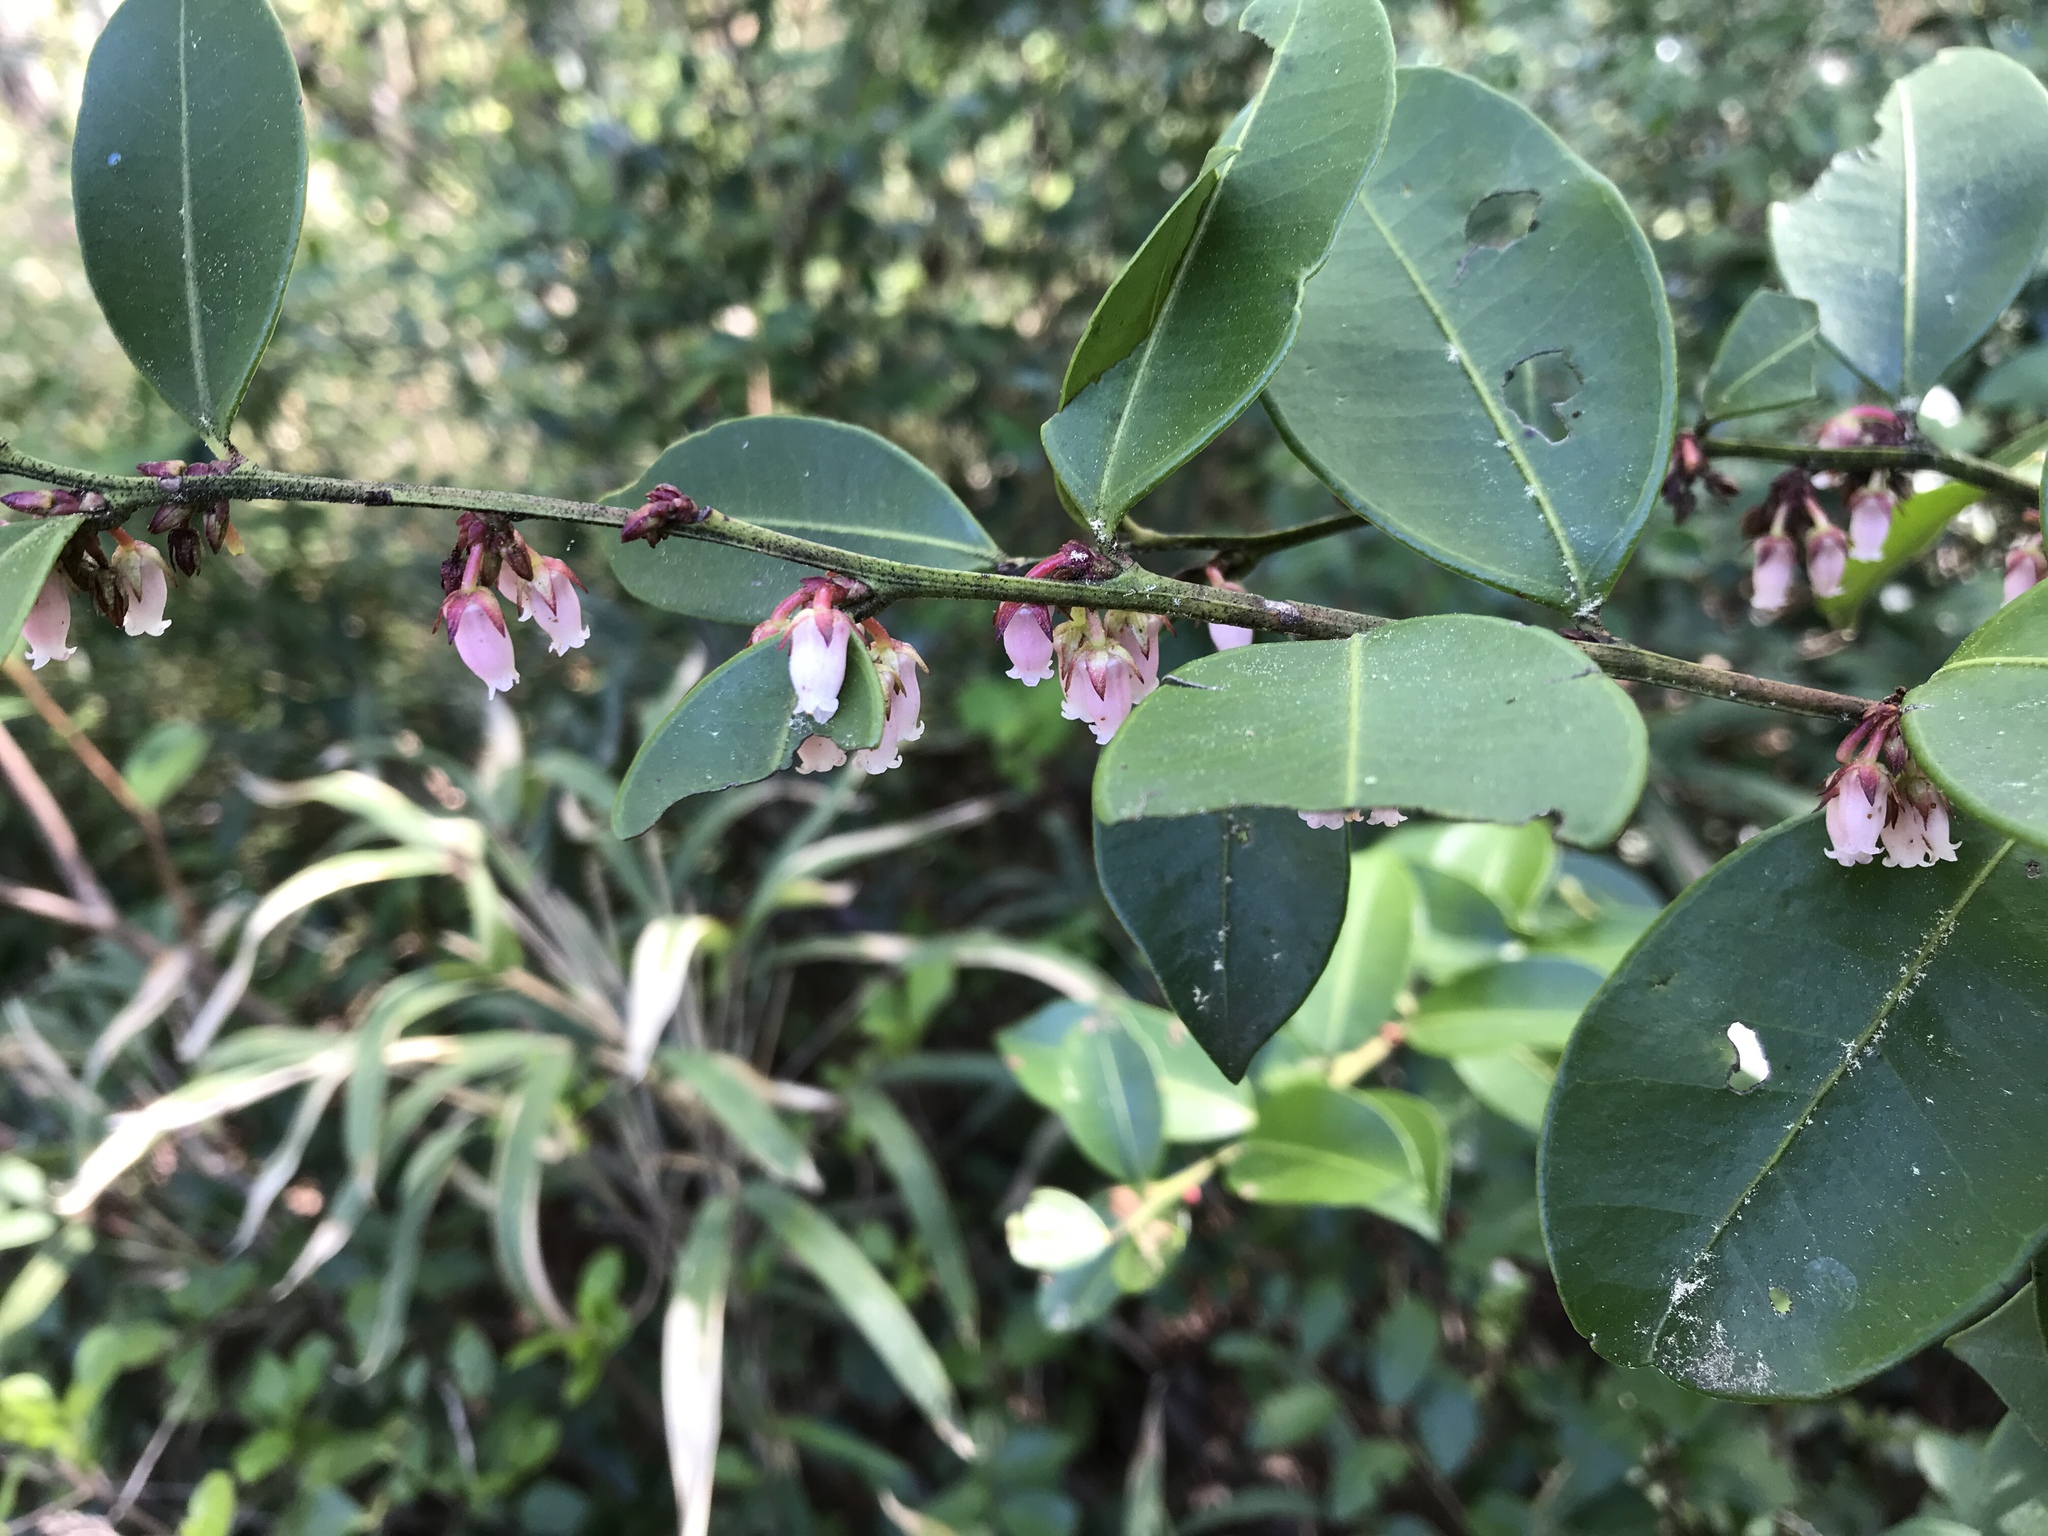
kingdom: Plantae
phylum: Tracheophyta
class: Magnoliopsida
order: Ericales
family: Ericaceae
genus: Lyonia
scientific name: Lyonia lucida
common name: Fetterbush
